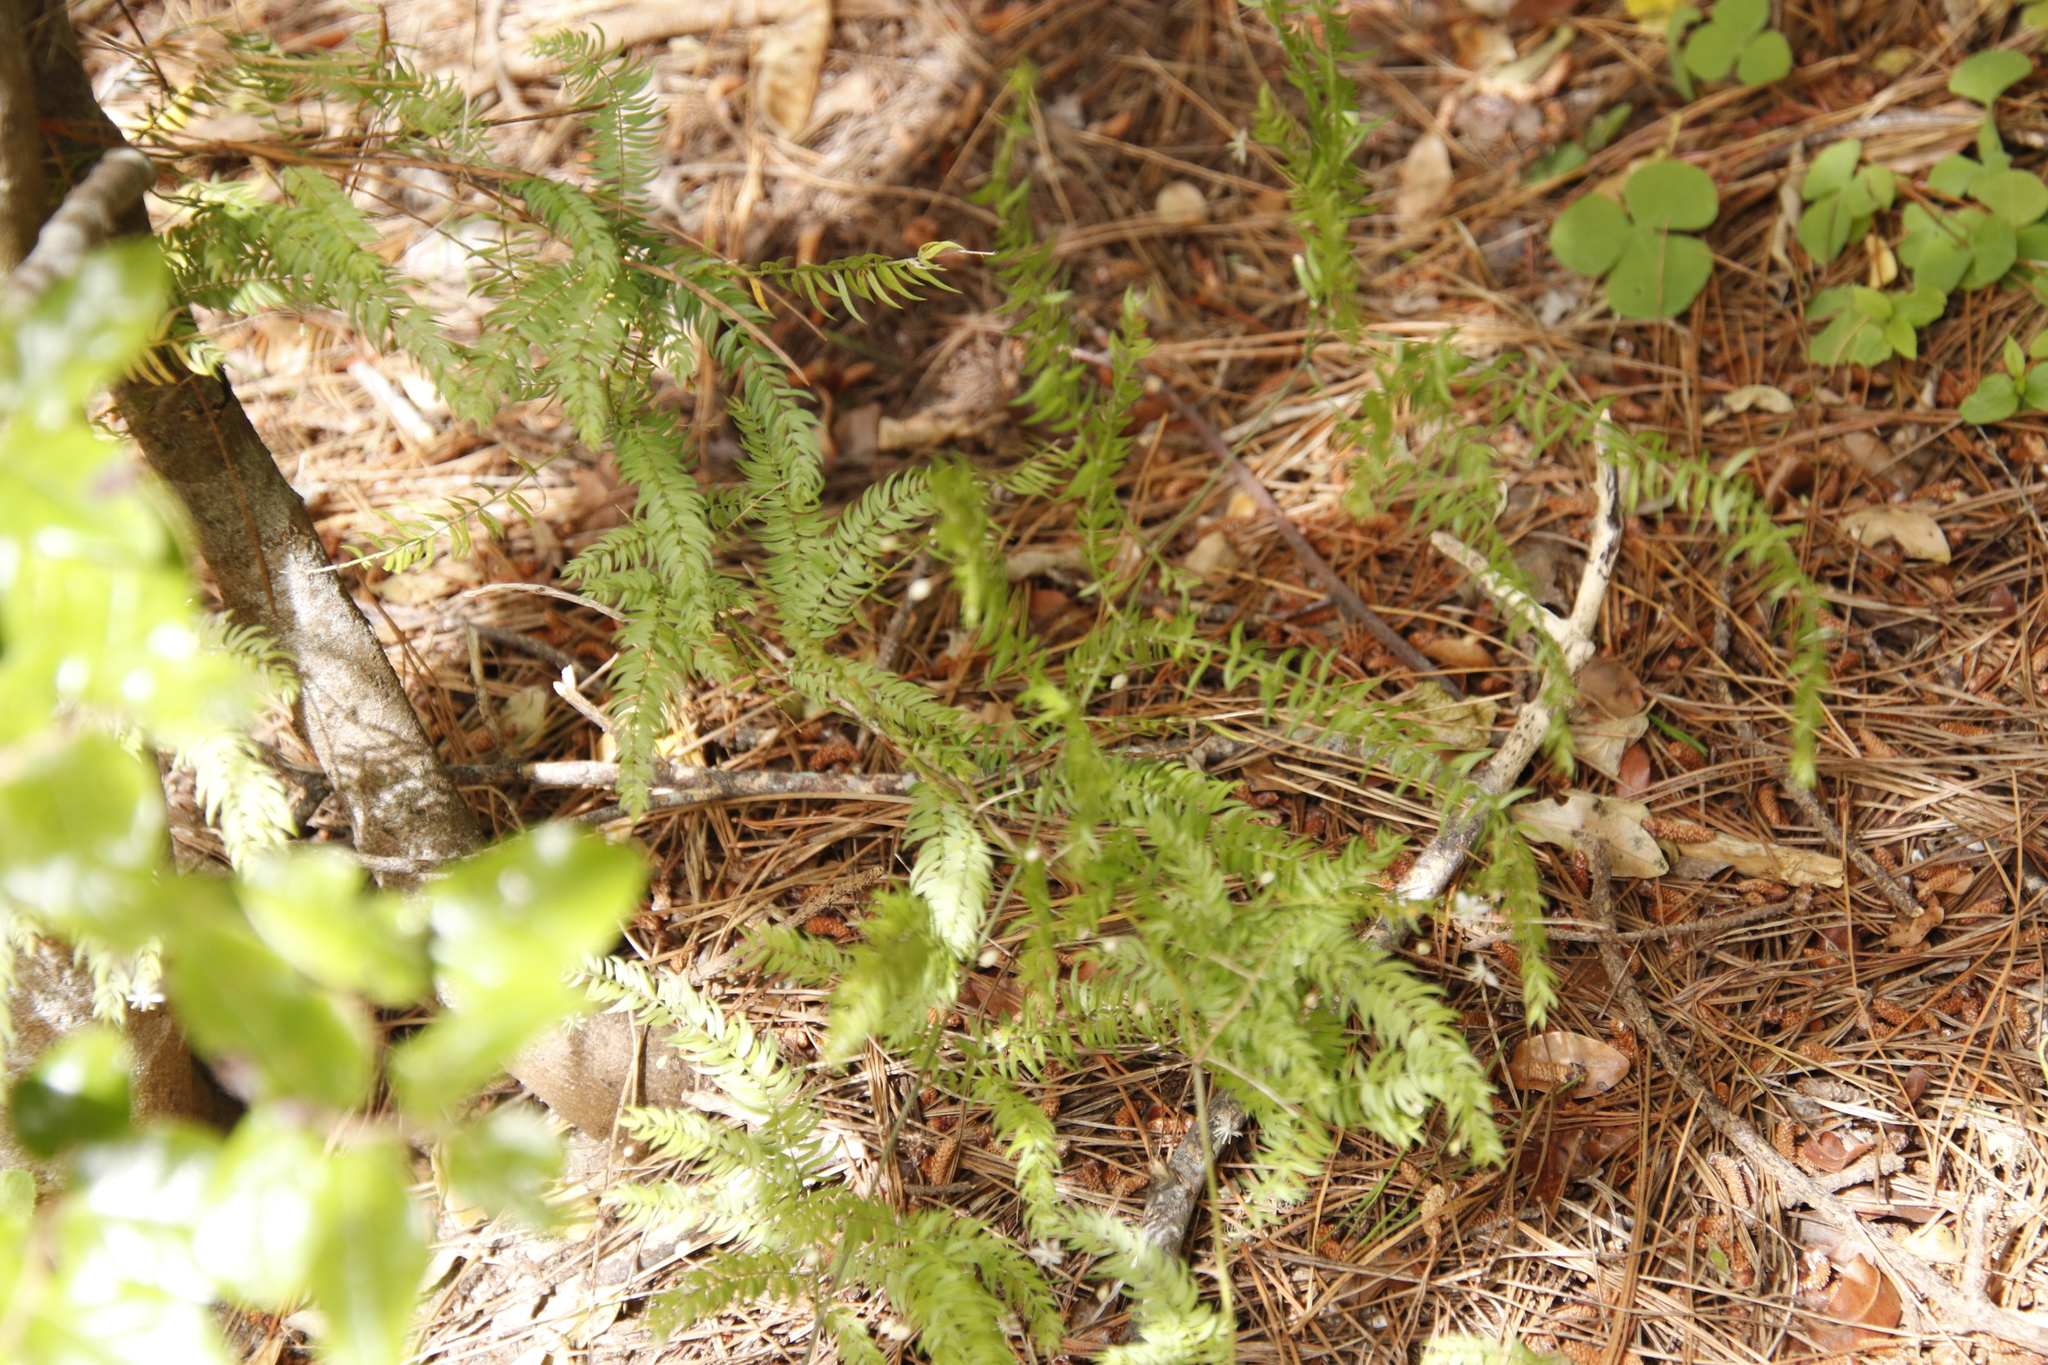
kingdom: Plantae
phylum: Tracheophyta
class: Liliopsida
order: Asparagales
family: Asparagaceae
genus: Asparagus
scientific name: Asparagus scandens
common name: Asparagus-fern
